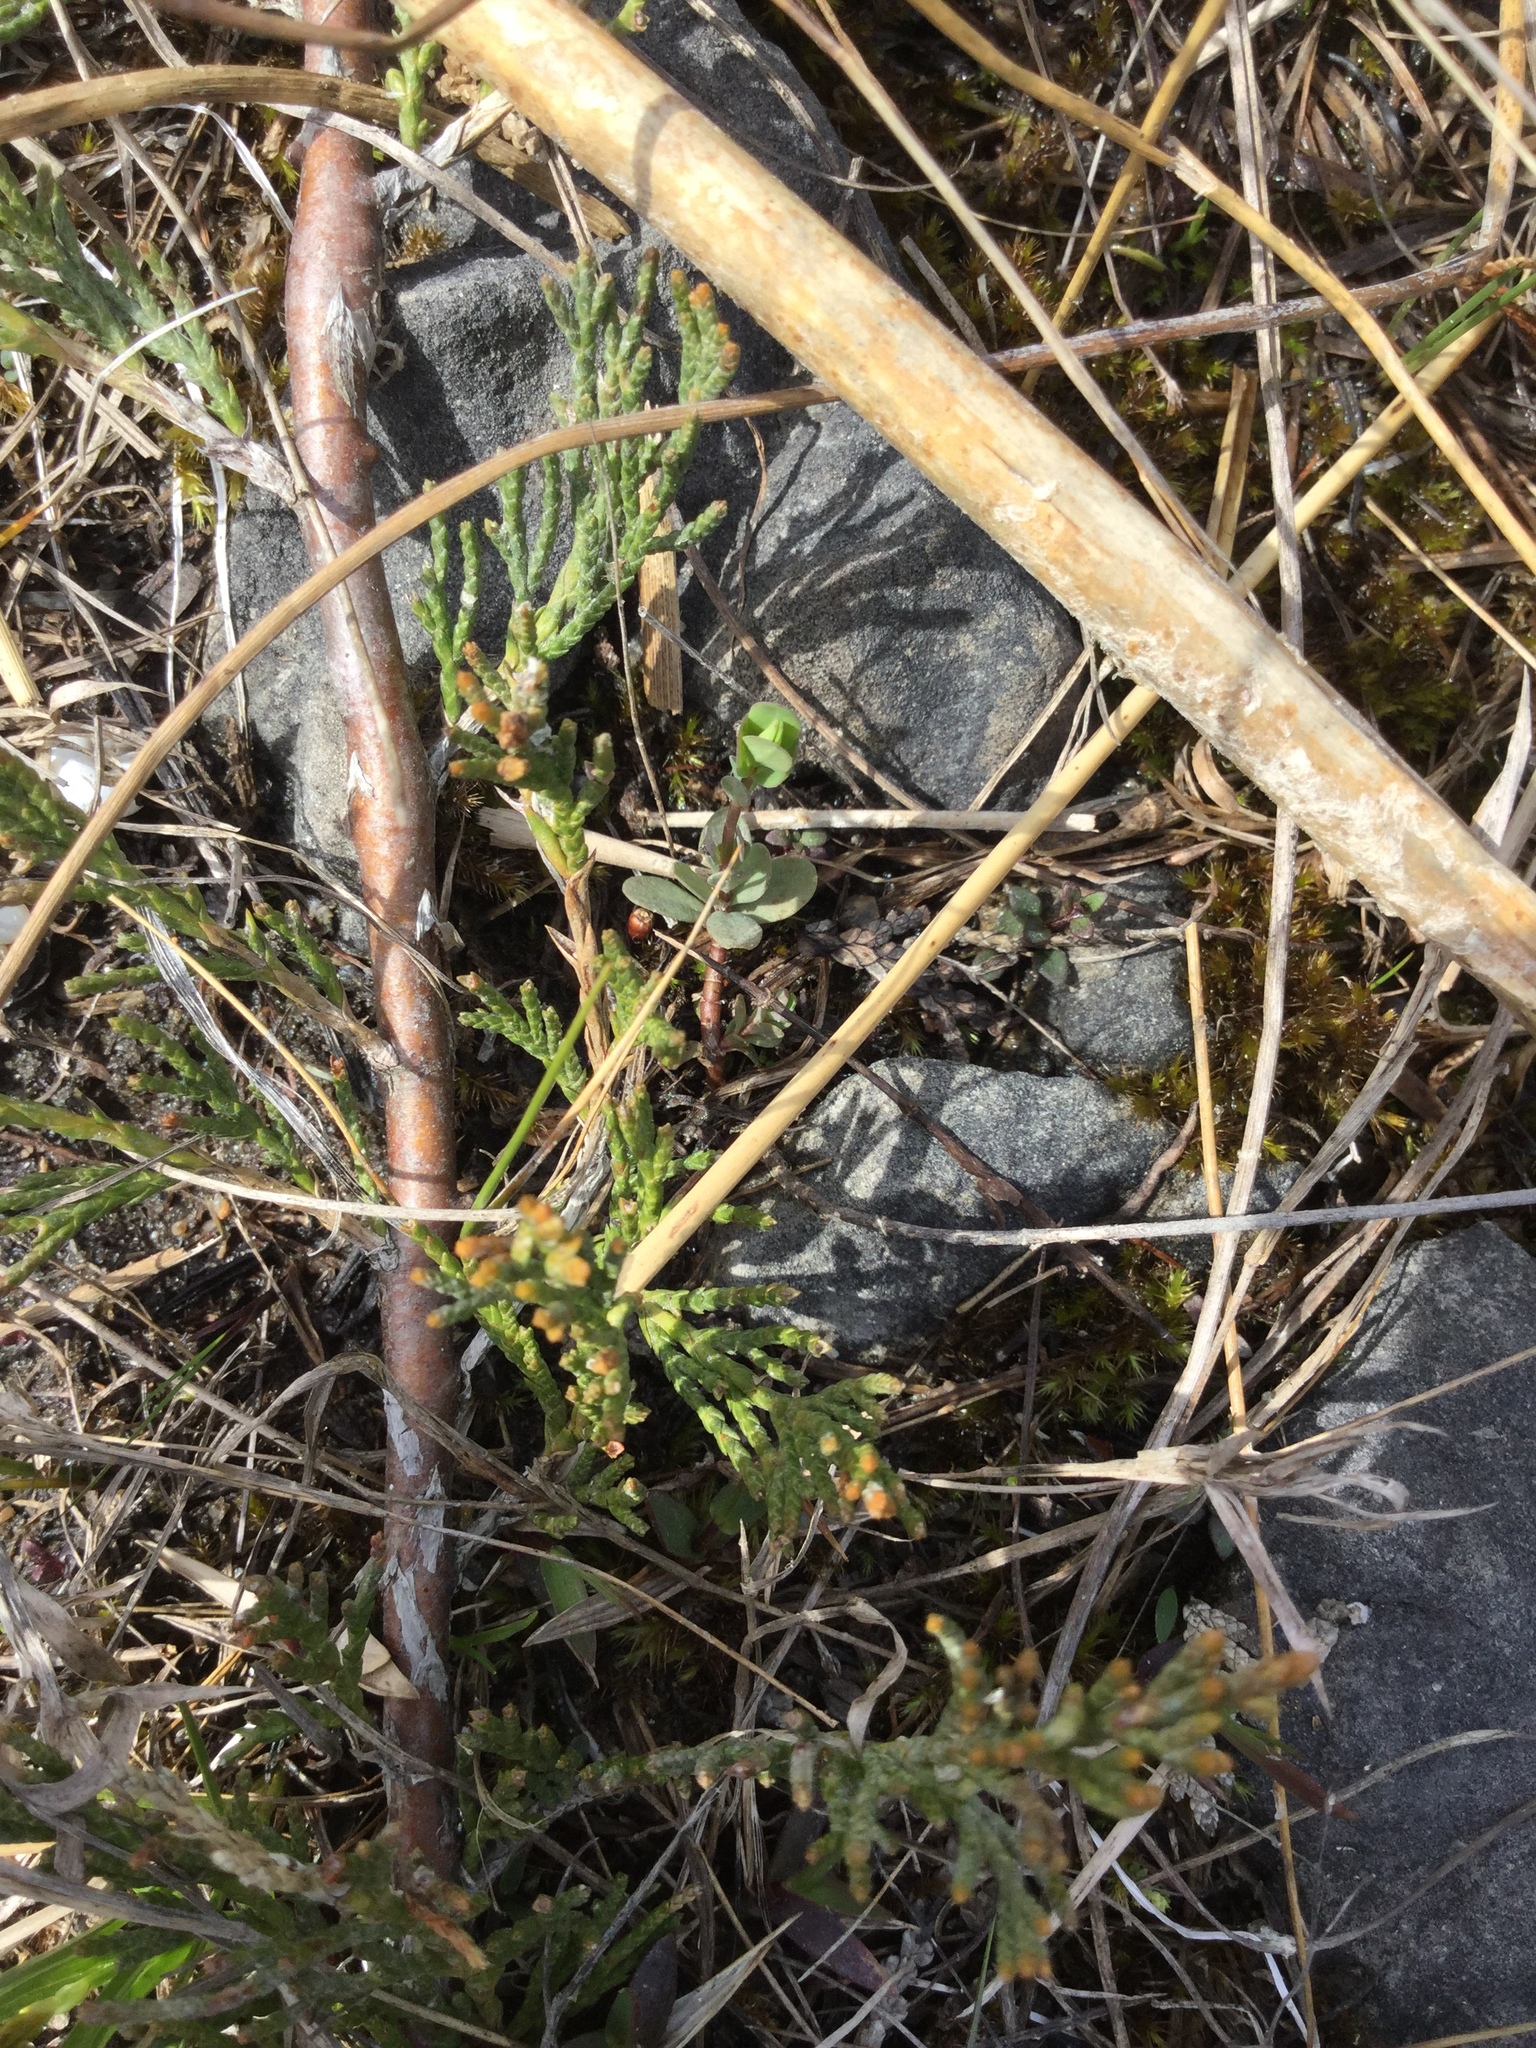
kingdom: Plantae
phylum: Tracheophyta
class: Pinopsida
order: Pinales
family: Cupressaceae
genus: Juniperus
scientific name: Juniperus horizontalis
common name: Creeping juniper
